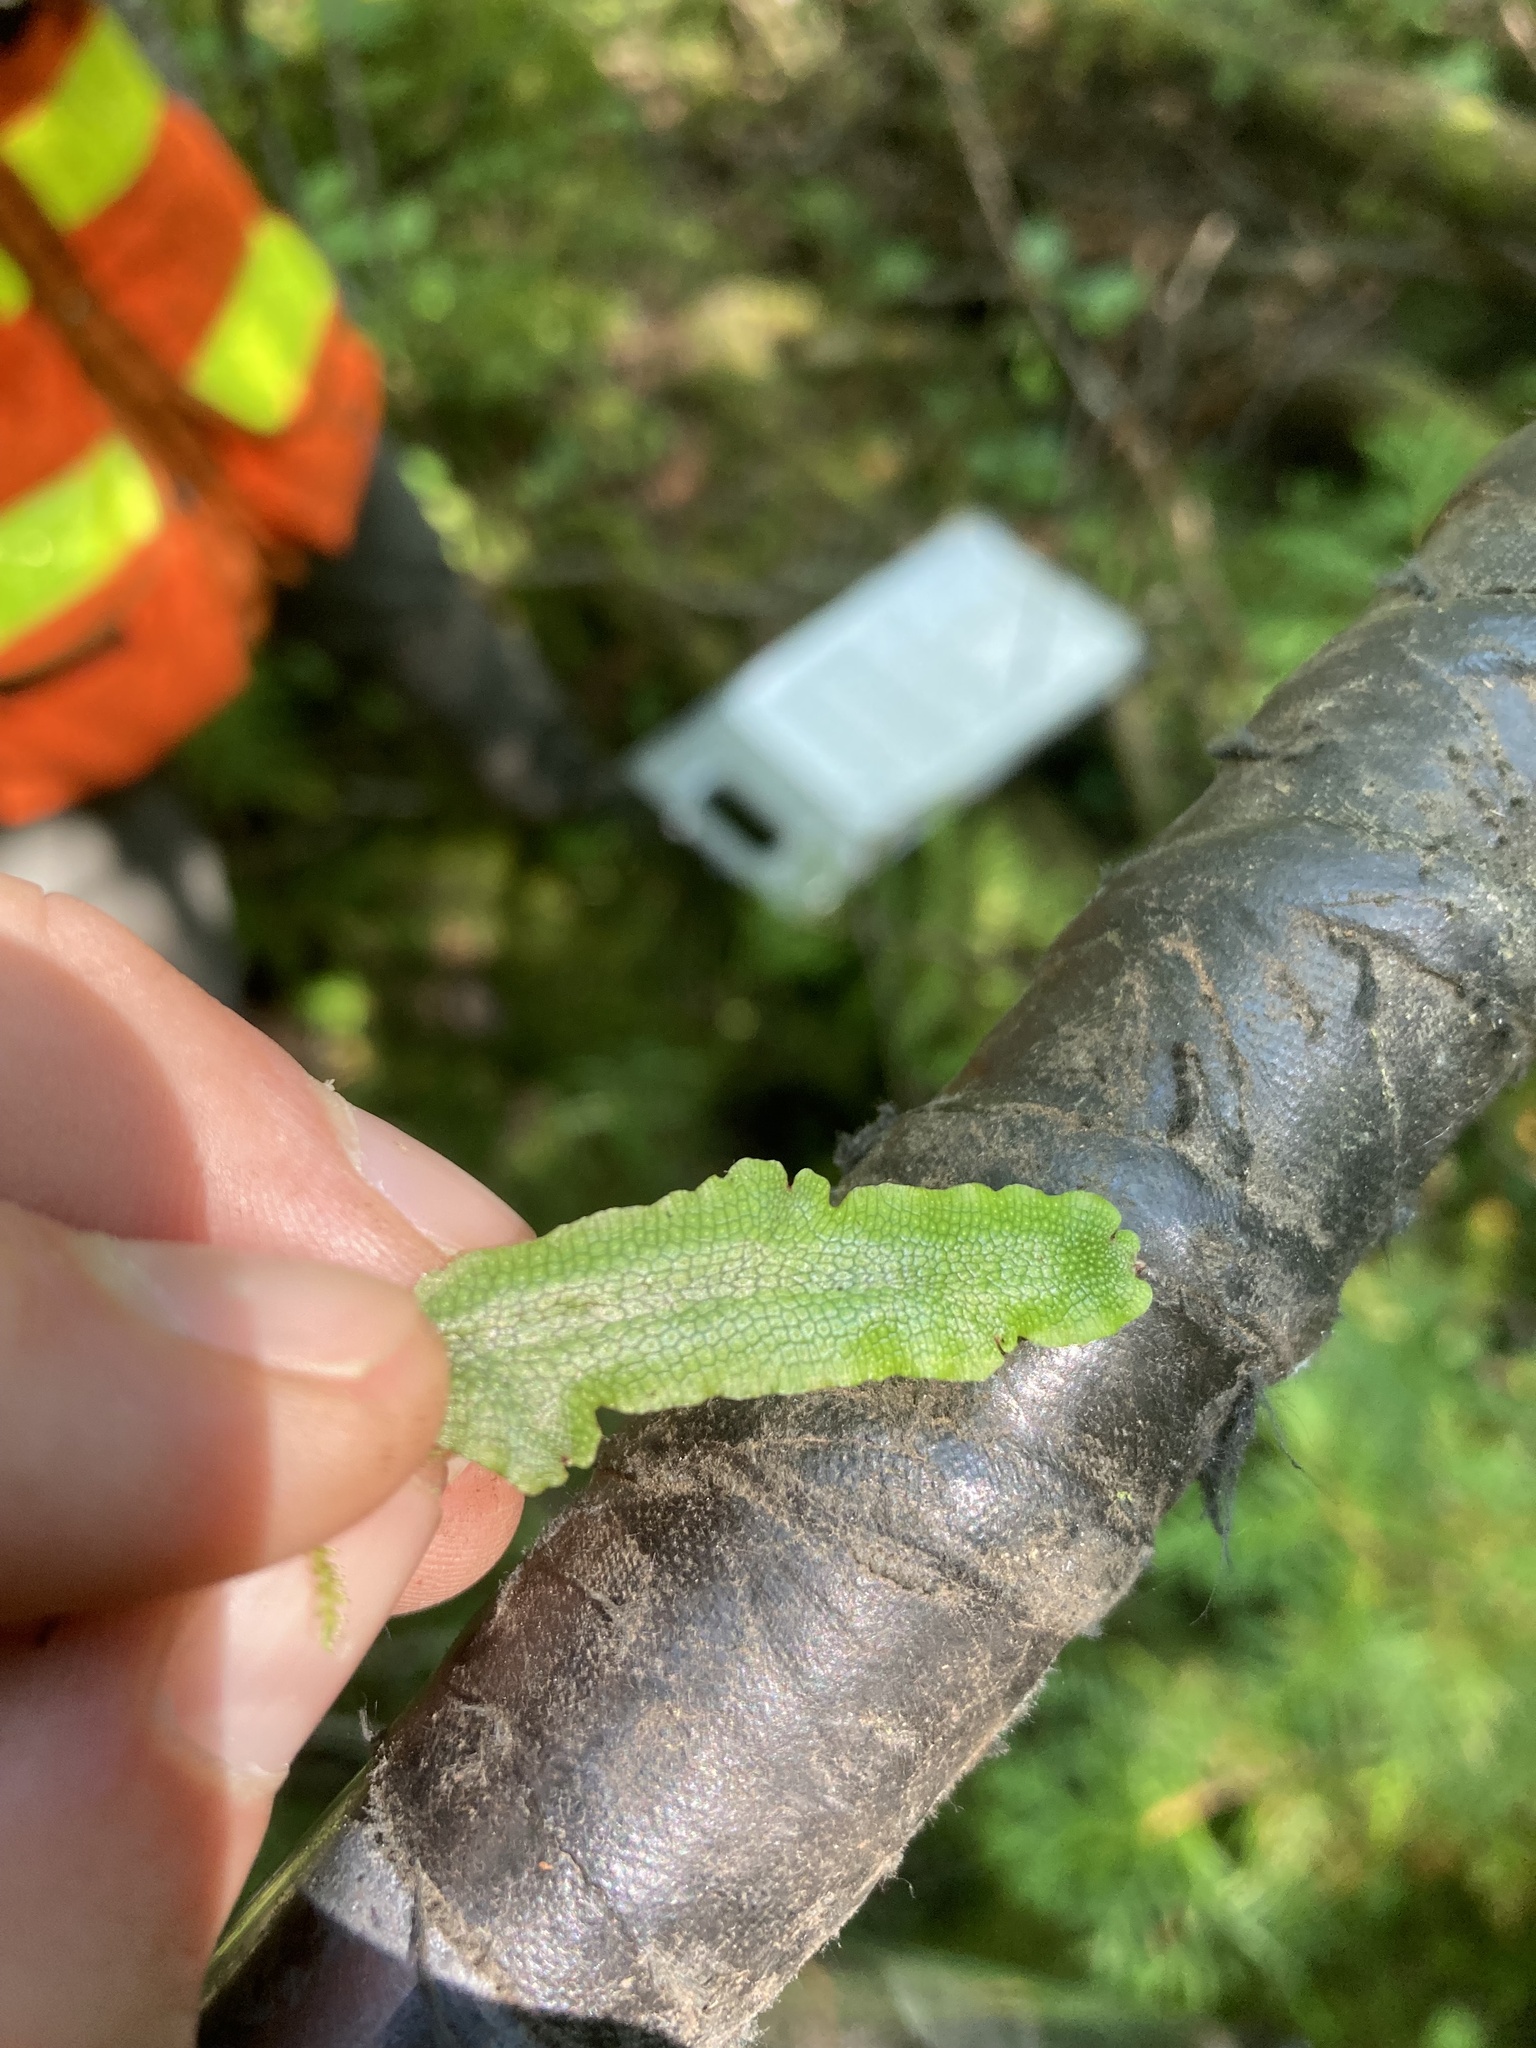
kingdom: Plantae
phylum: Marchantiophyta
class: Marchantiopsida
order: Marchantiales
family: Conocephalaceae
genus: Conocephalum
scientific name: Conocephalum salebrosum
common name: Cat-tongue liverwort
